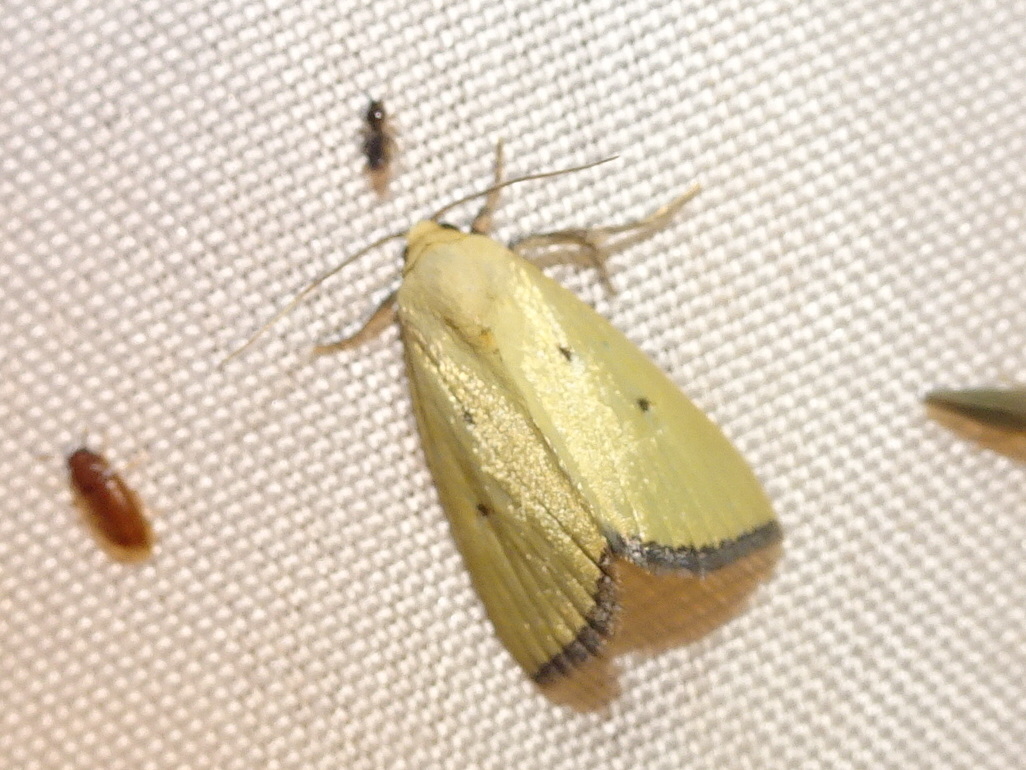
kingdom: Animalia
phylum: Arthropoda
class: Insecta
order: Lepidoptera
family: Noctuidae
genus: Marimatha
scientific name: Marimatha nigrofimbria
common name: Black-bordered lemon moth
